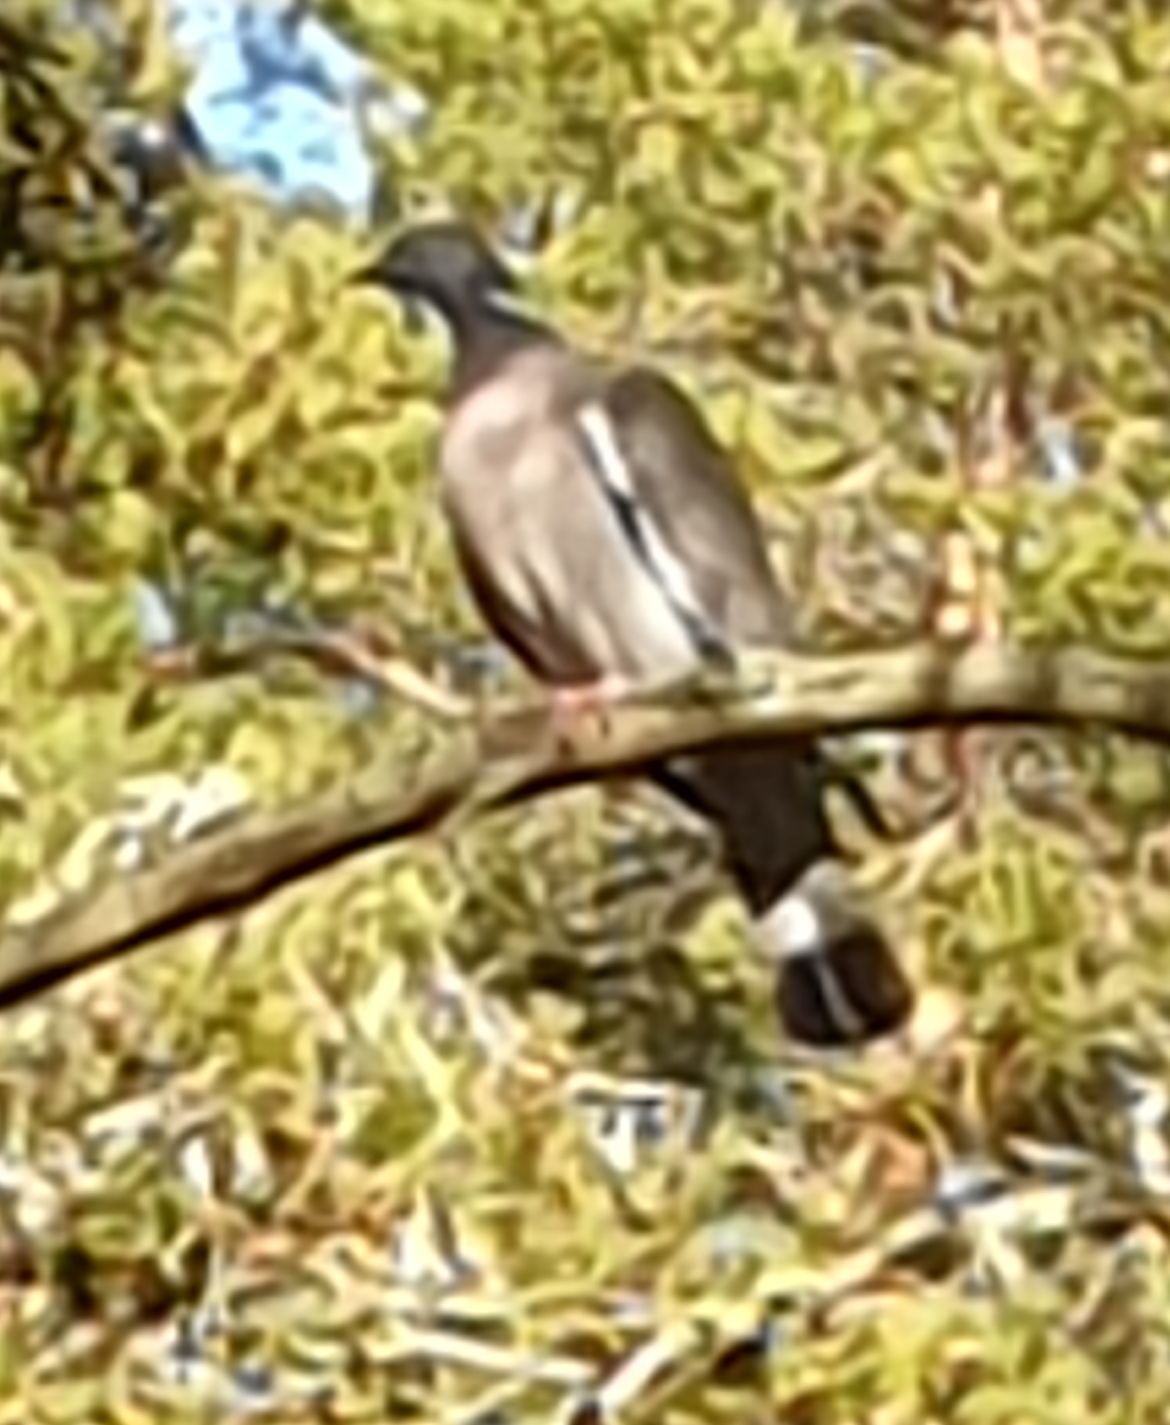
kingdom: Animalia
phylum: Chordata
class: Aves
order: Columbiformes
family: Columbidae
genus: Columba
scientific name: Columba palumbus
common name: Common wood pigeon
